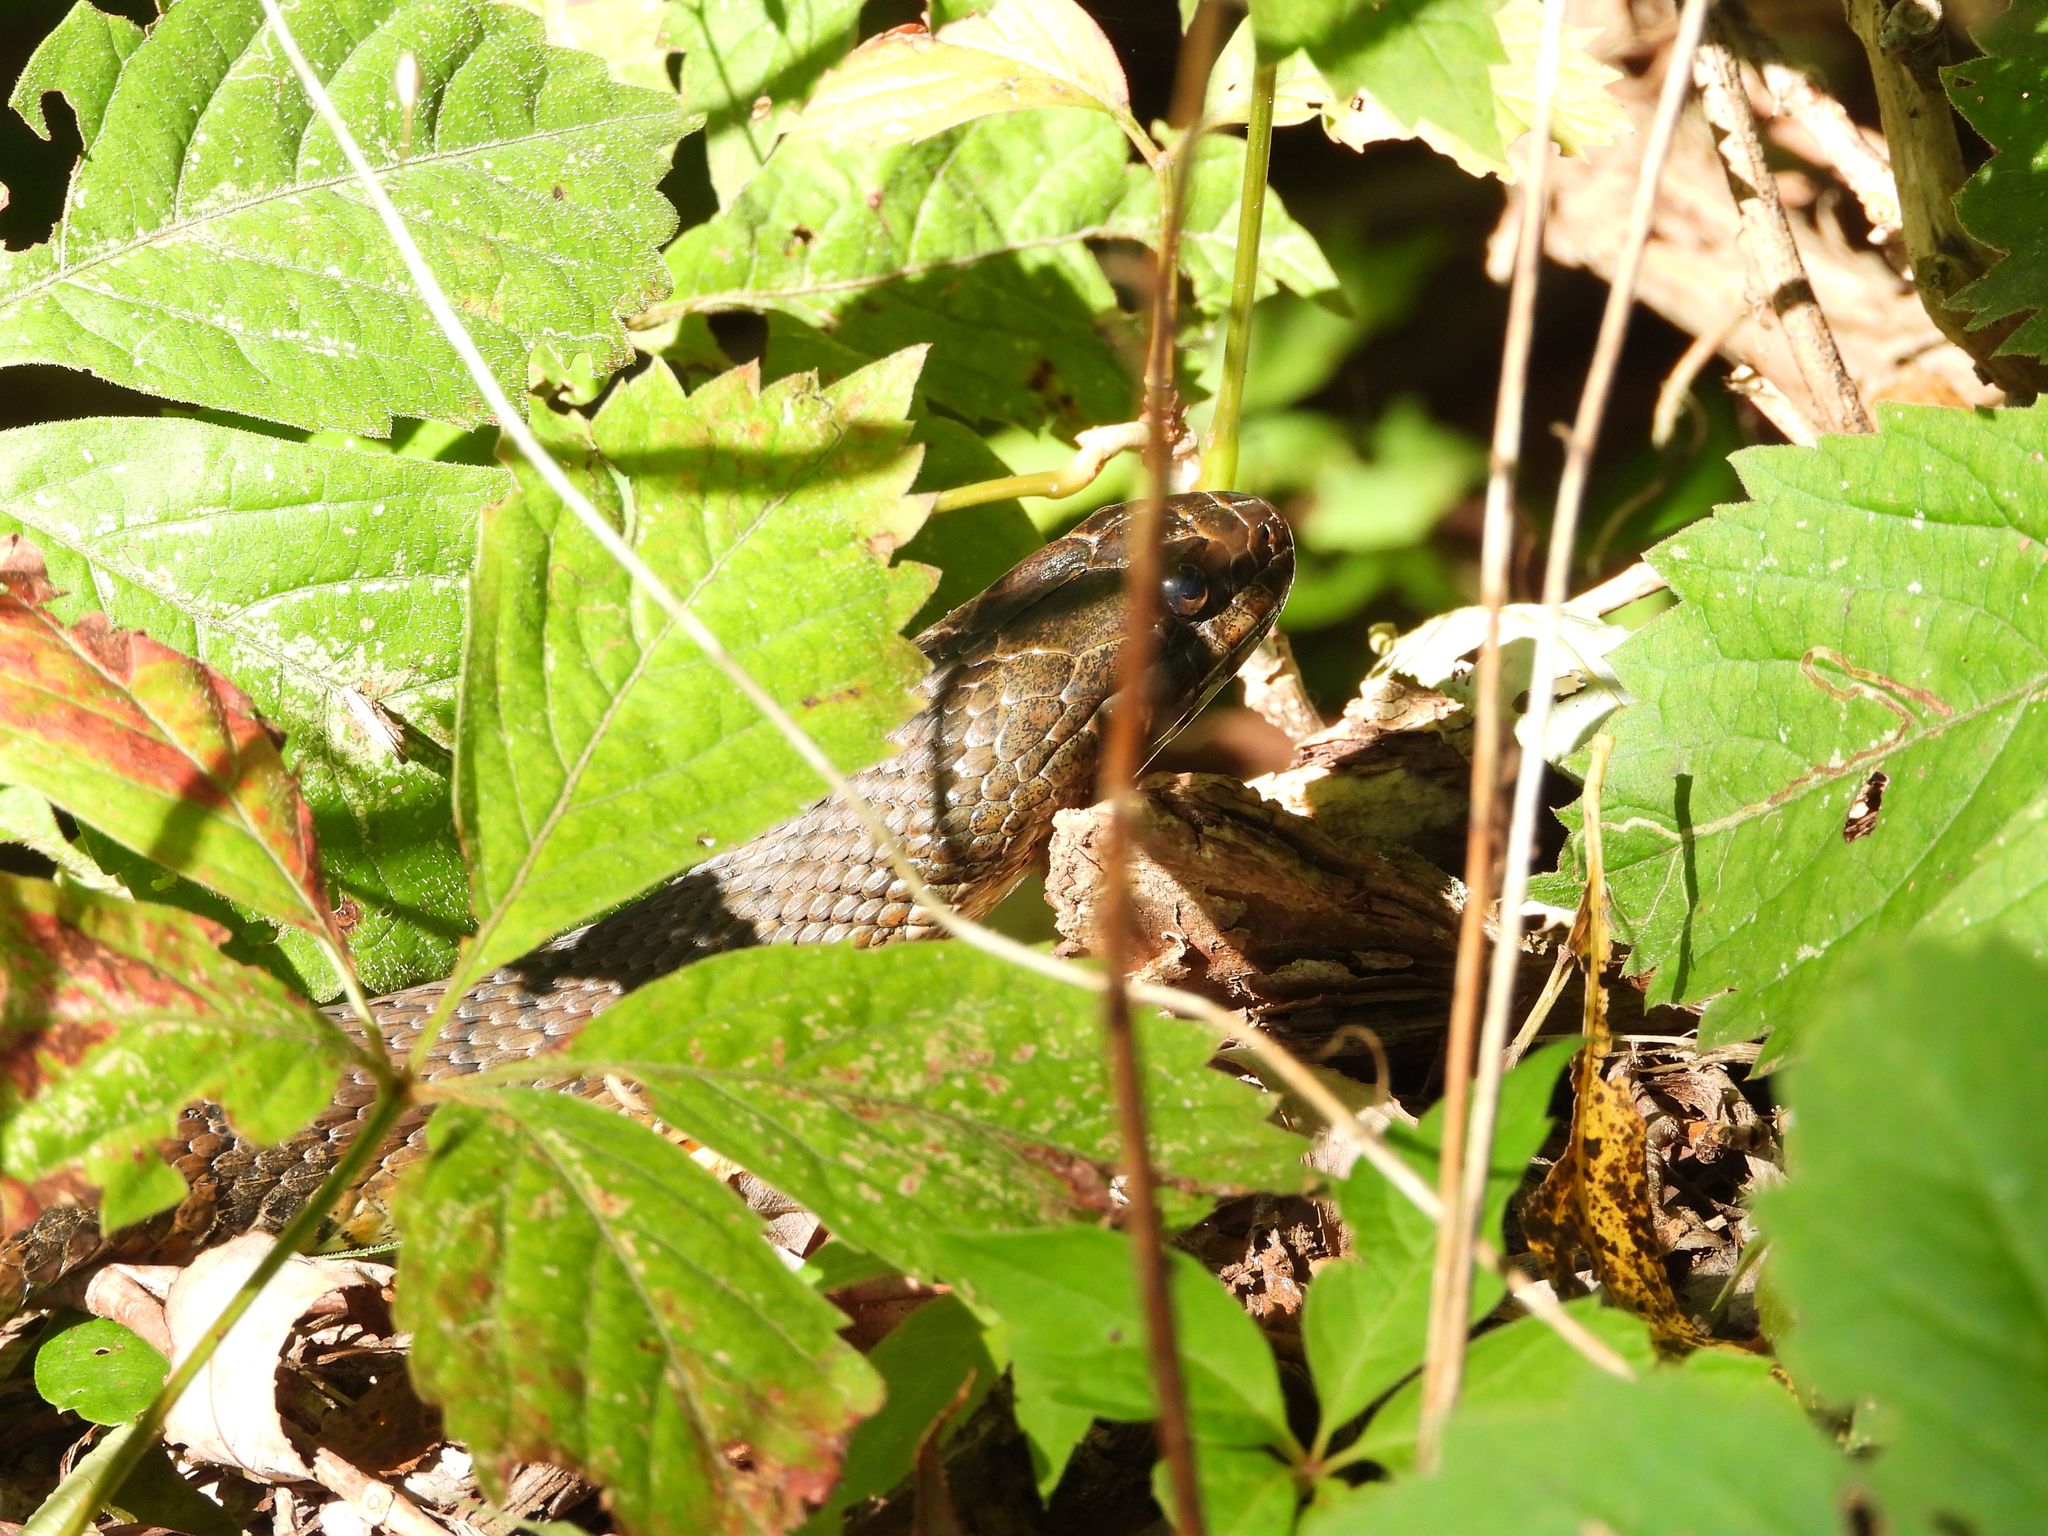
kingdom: Animalia
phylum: Chordata
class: Squamata
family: Colubridae
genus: Nerodia
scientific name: Nerodia sipedon
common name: Northern water snake
